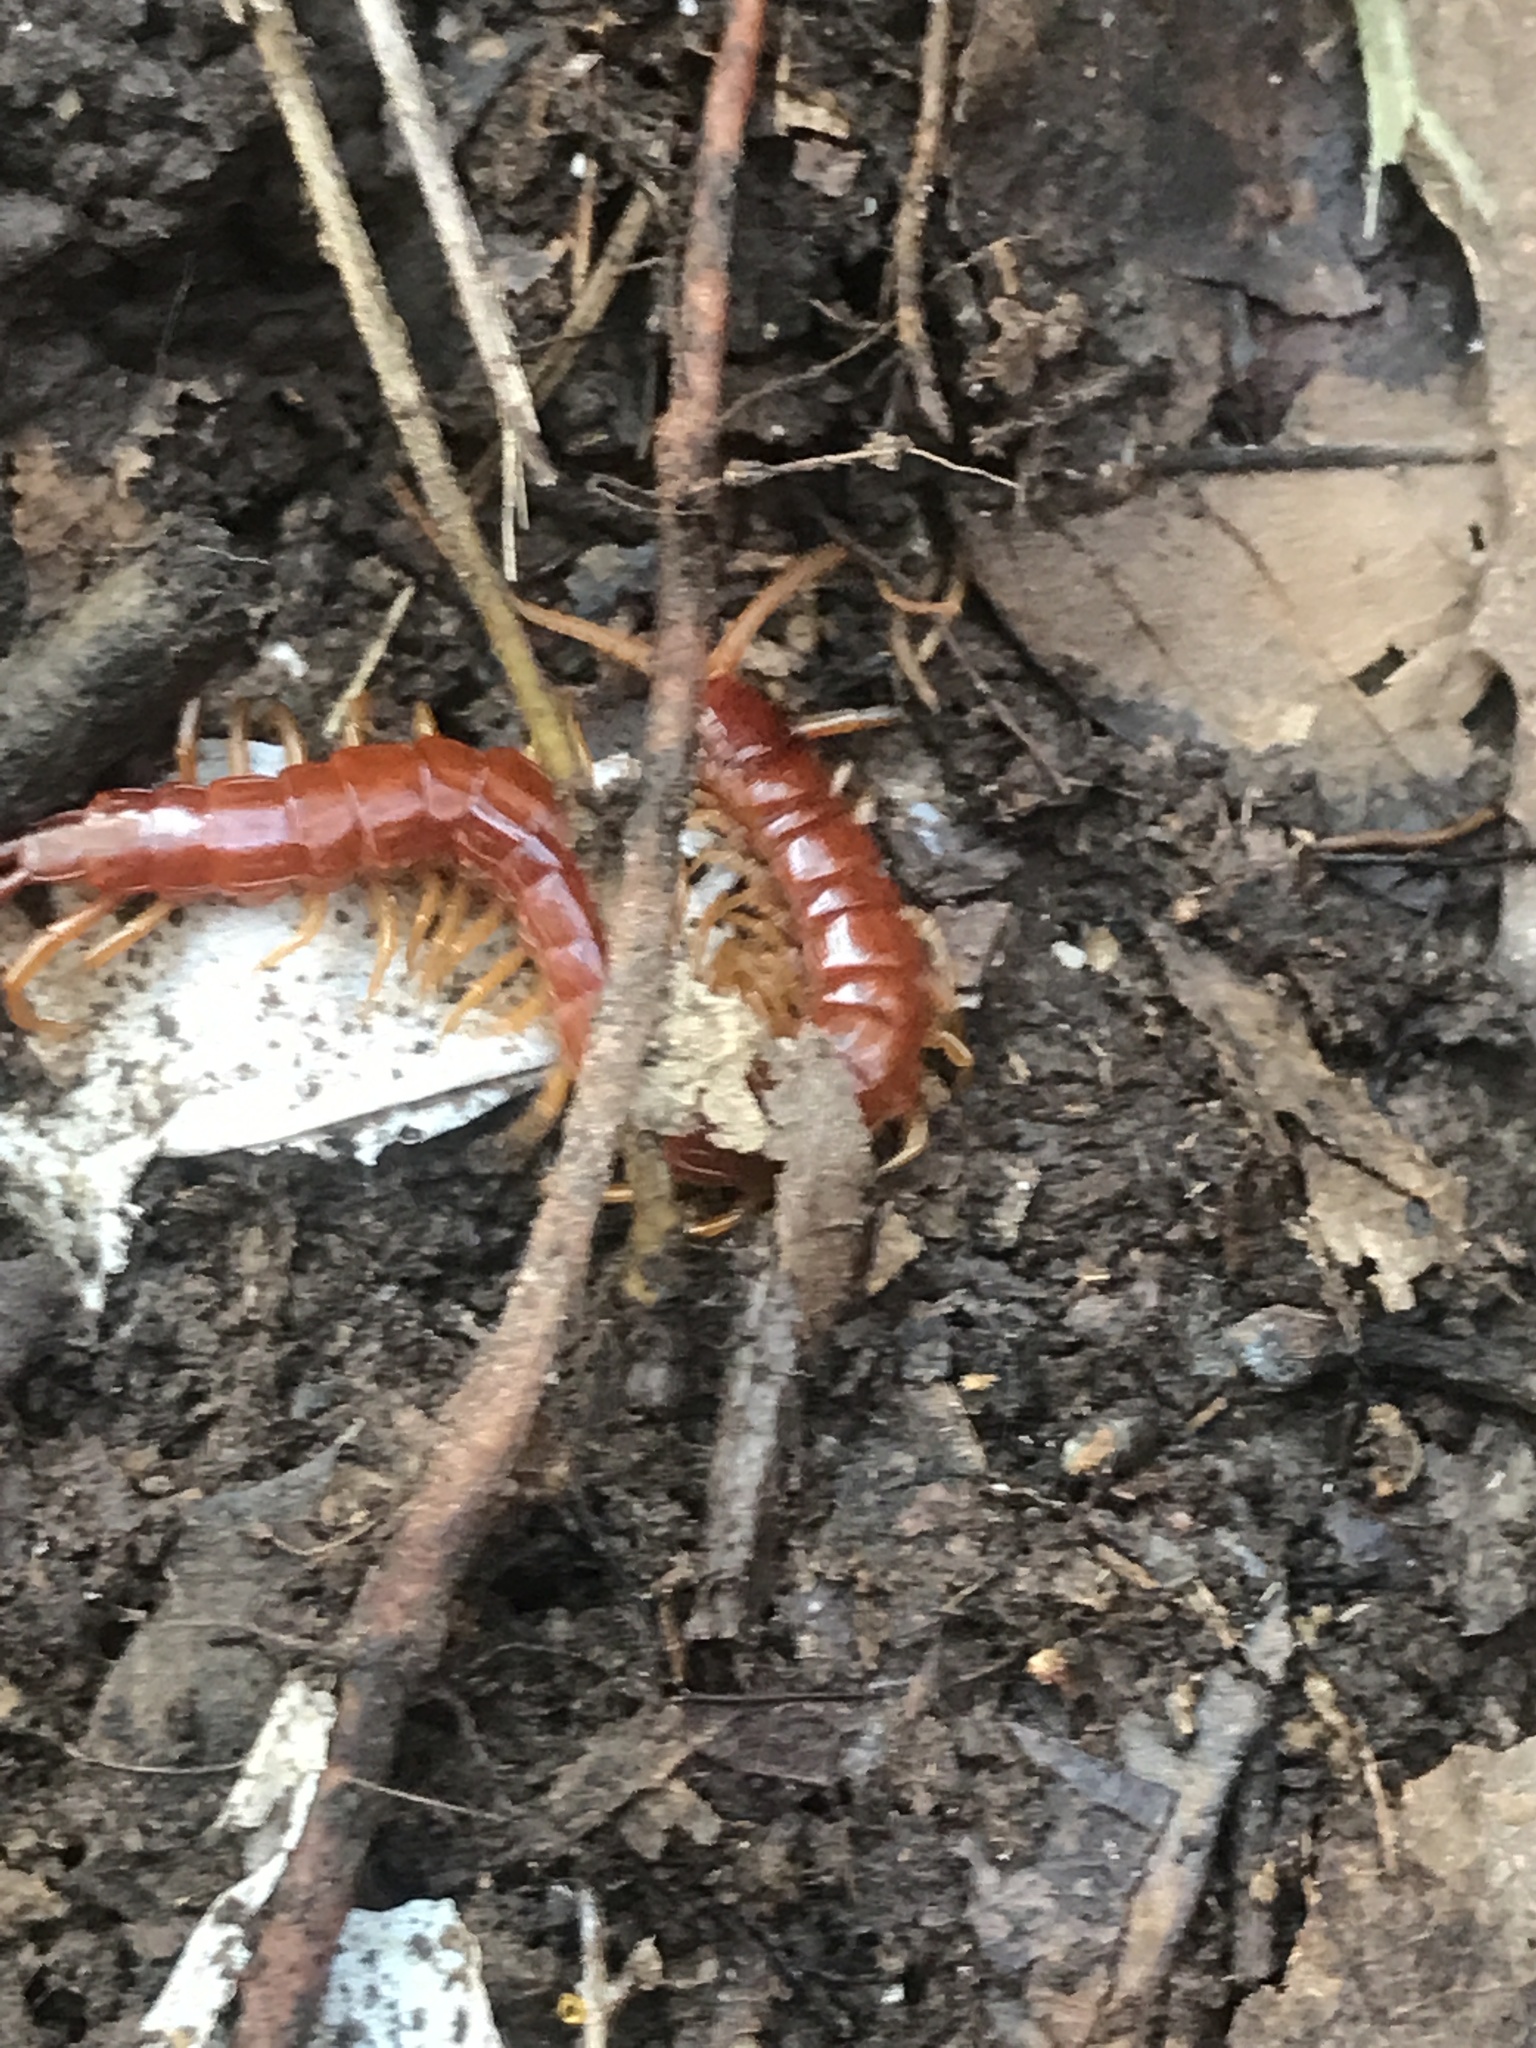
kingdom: Animalia
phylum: Arthropoda
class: Chilopoda
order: Scolopendromorpha
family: Scolopocryptopidae
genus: Scolopocryptops
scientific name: Scolopocryptops sexspinosus
